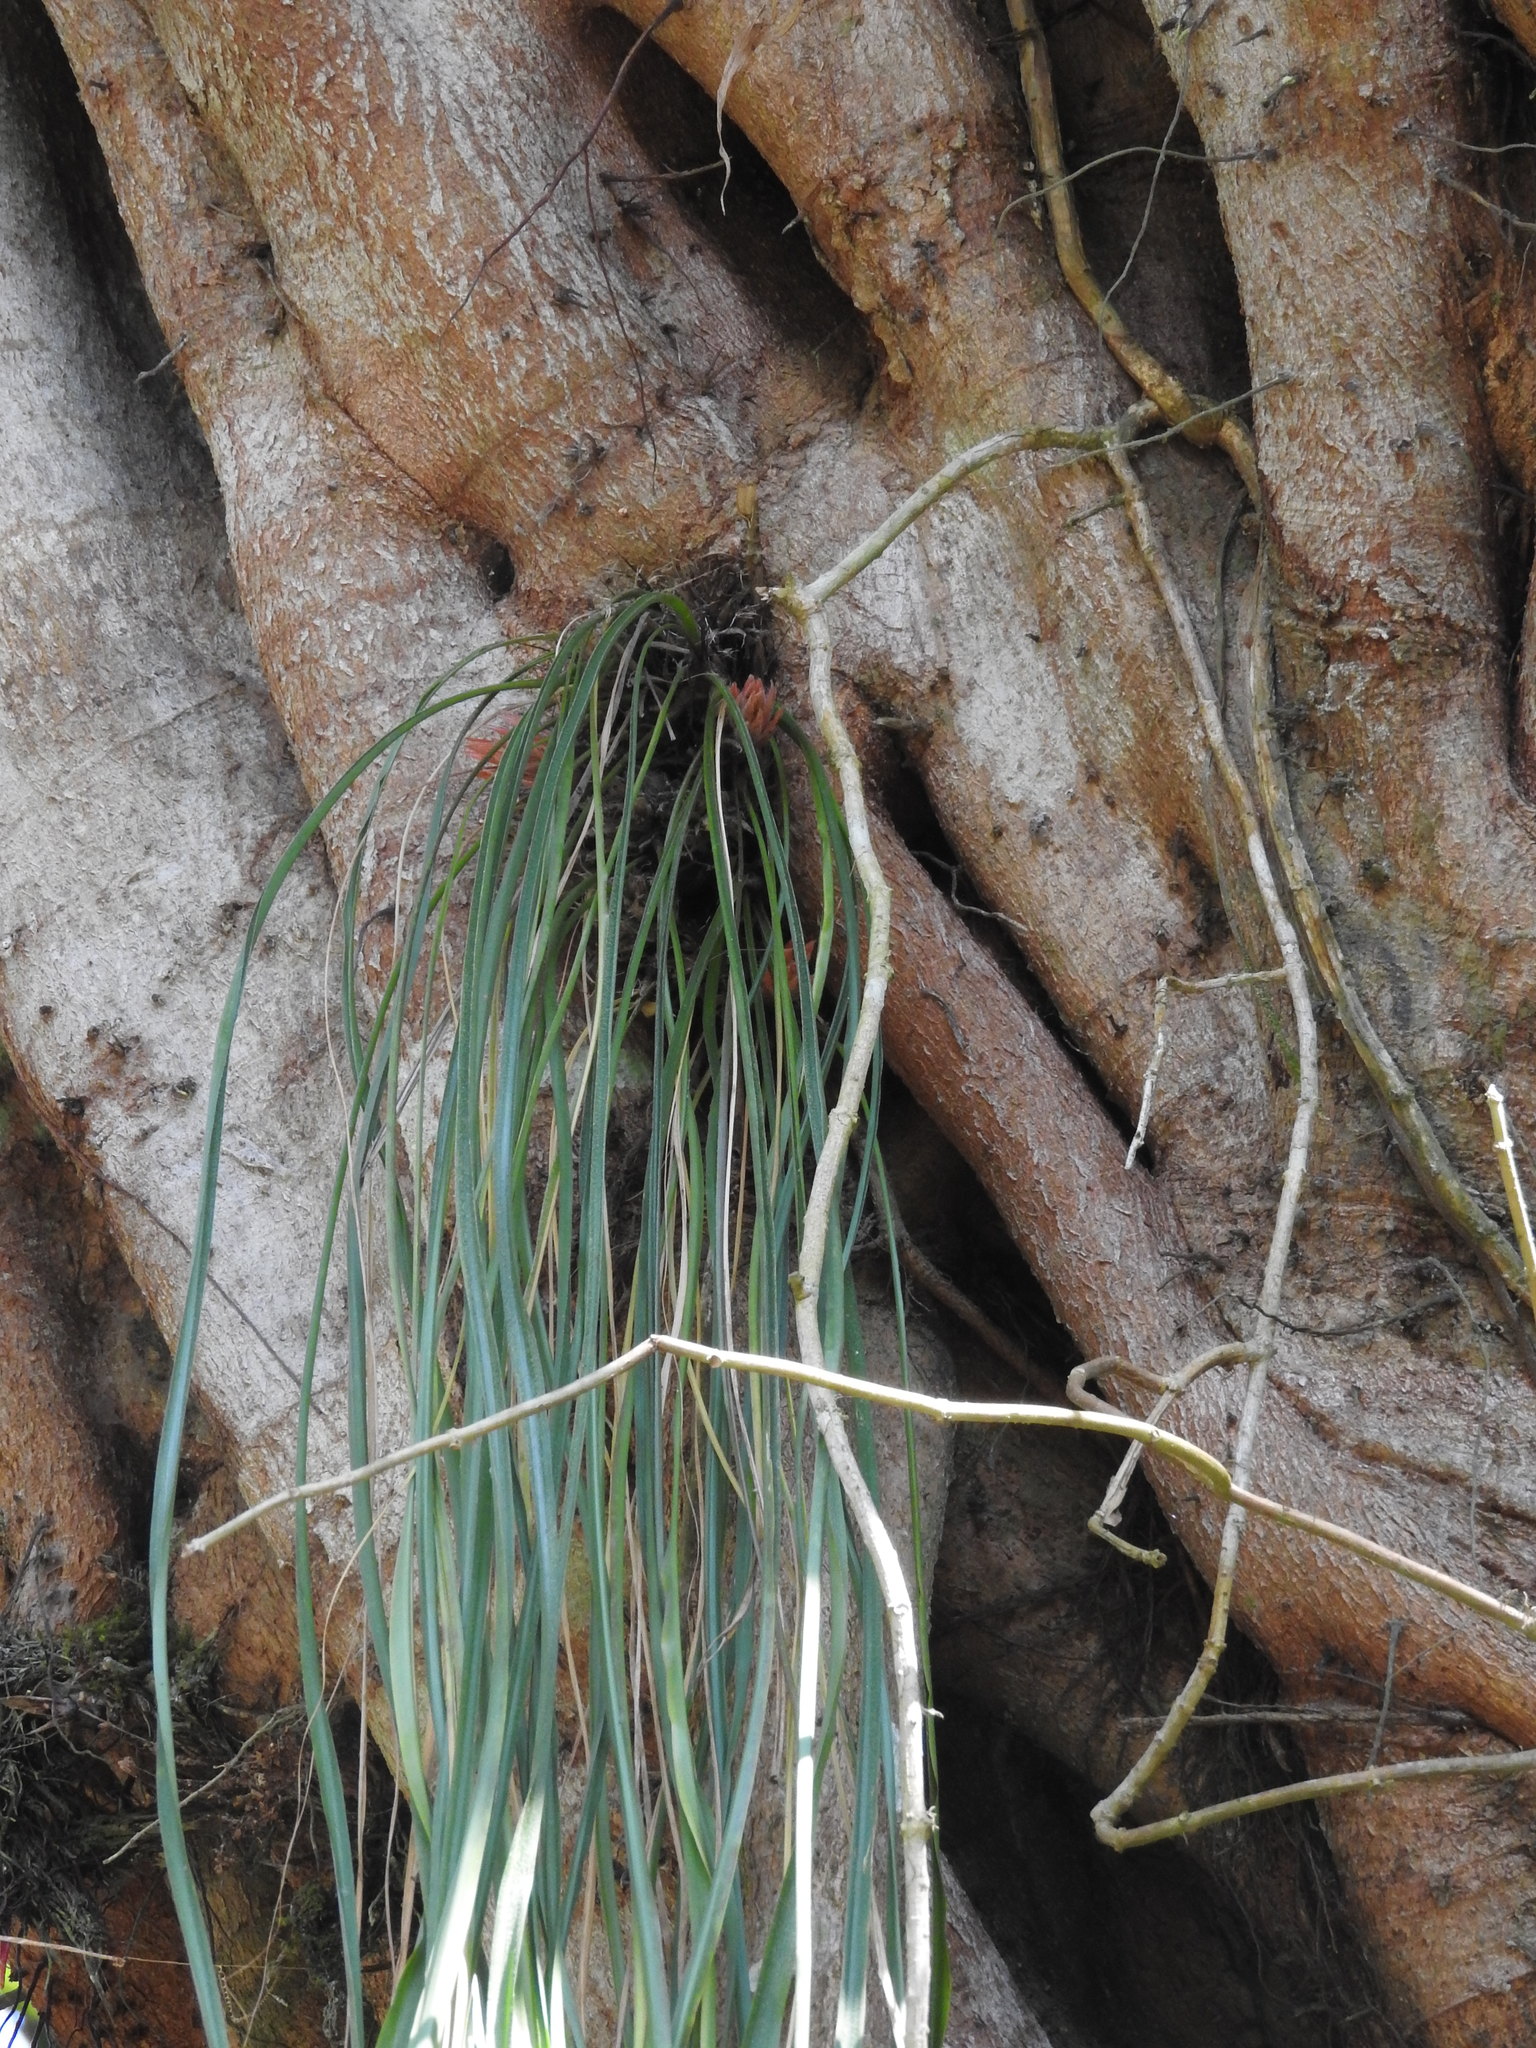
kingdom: Plantae
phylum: Tracheophyta
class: Polypodiopsida
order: Polypodiales
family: Polypodiaceae
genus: Campyloneurum
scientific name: Campyloneurum angustifolium
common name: Narrow-leaf strap fern
